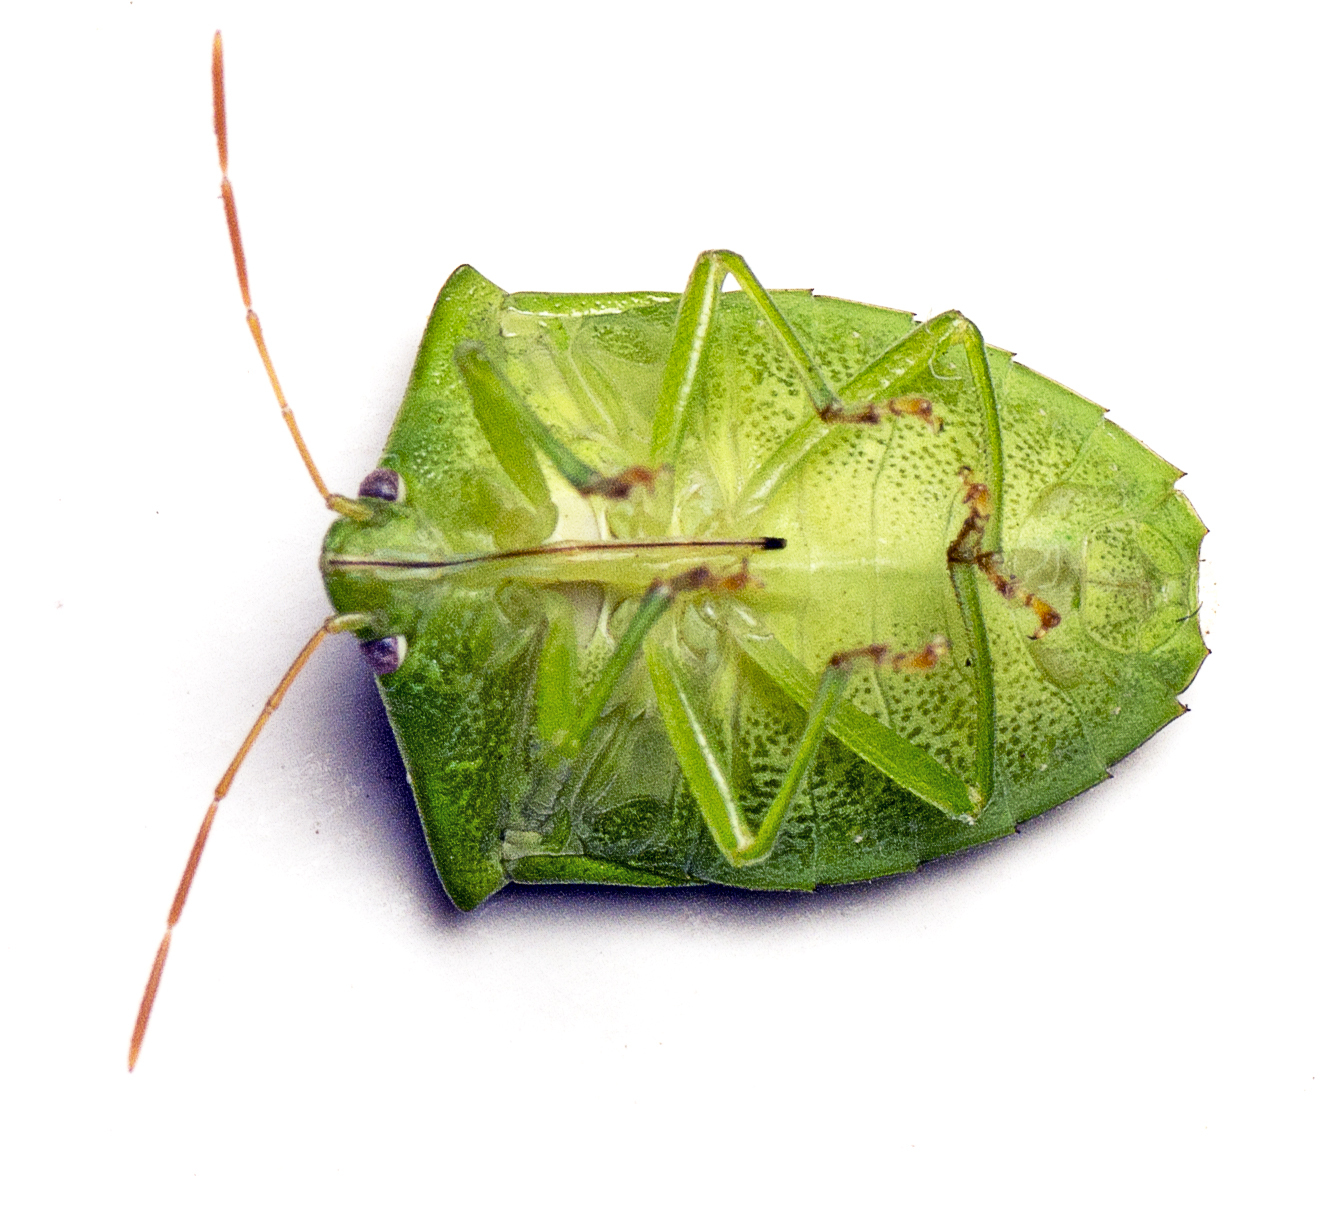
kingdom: Animalia
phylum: Arthropoda
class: Insecta
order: Hemiptera
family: Pentatomidae
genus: Cuspicona
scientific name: Cuspicona simplex
